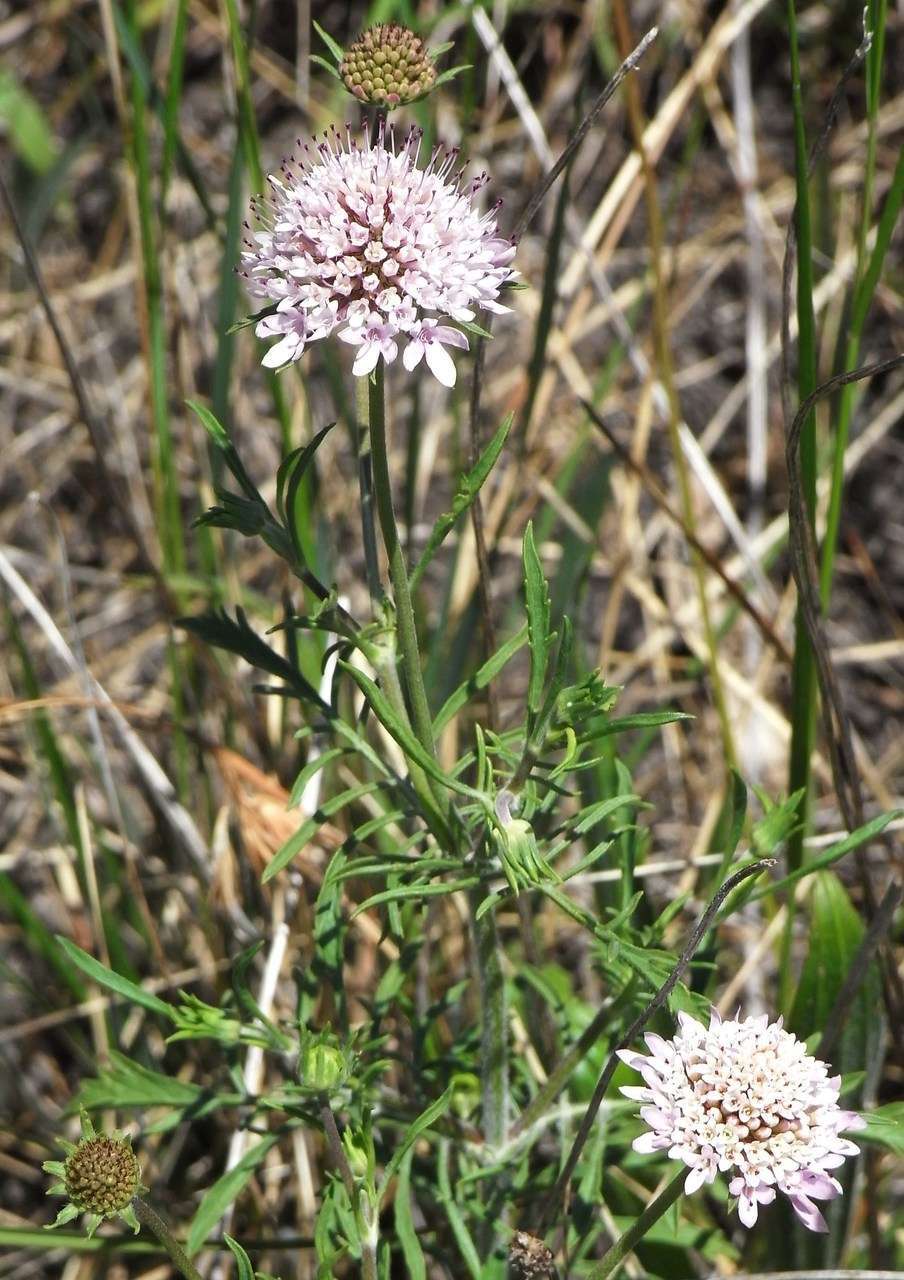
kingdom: Plantae
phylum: Tracheophyta
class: Magnoliopsida
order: Dipsacales
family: Caprifoliaceae
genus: Sixalix
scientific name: Sixalix atropurpurea
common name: Sweet scabious
